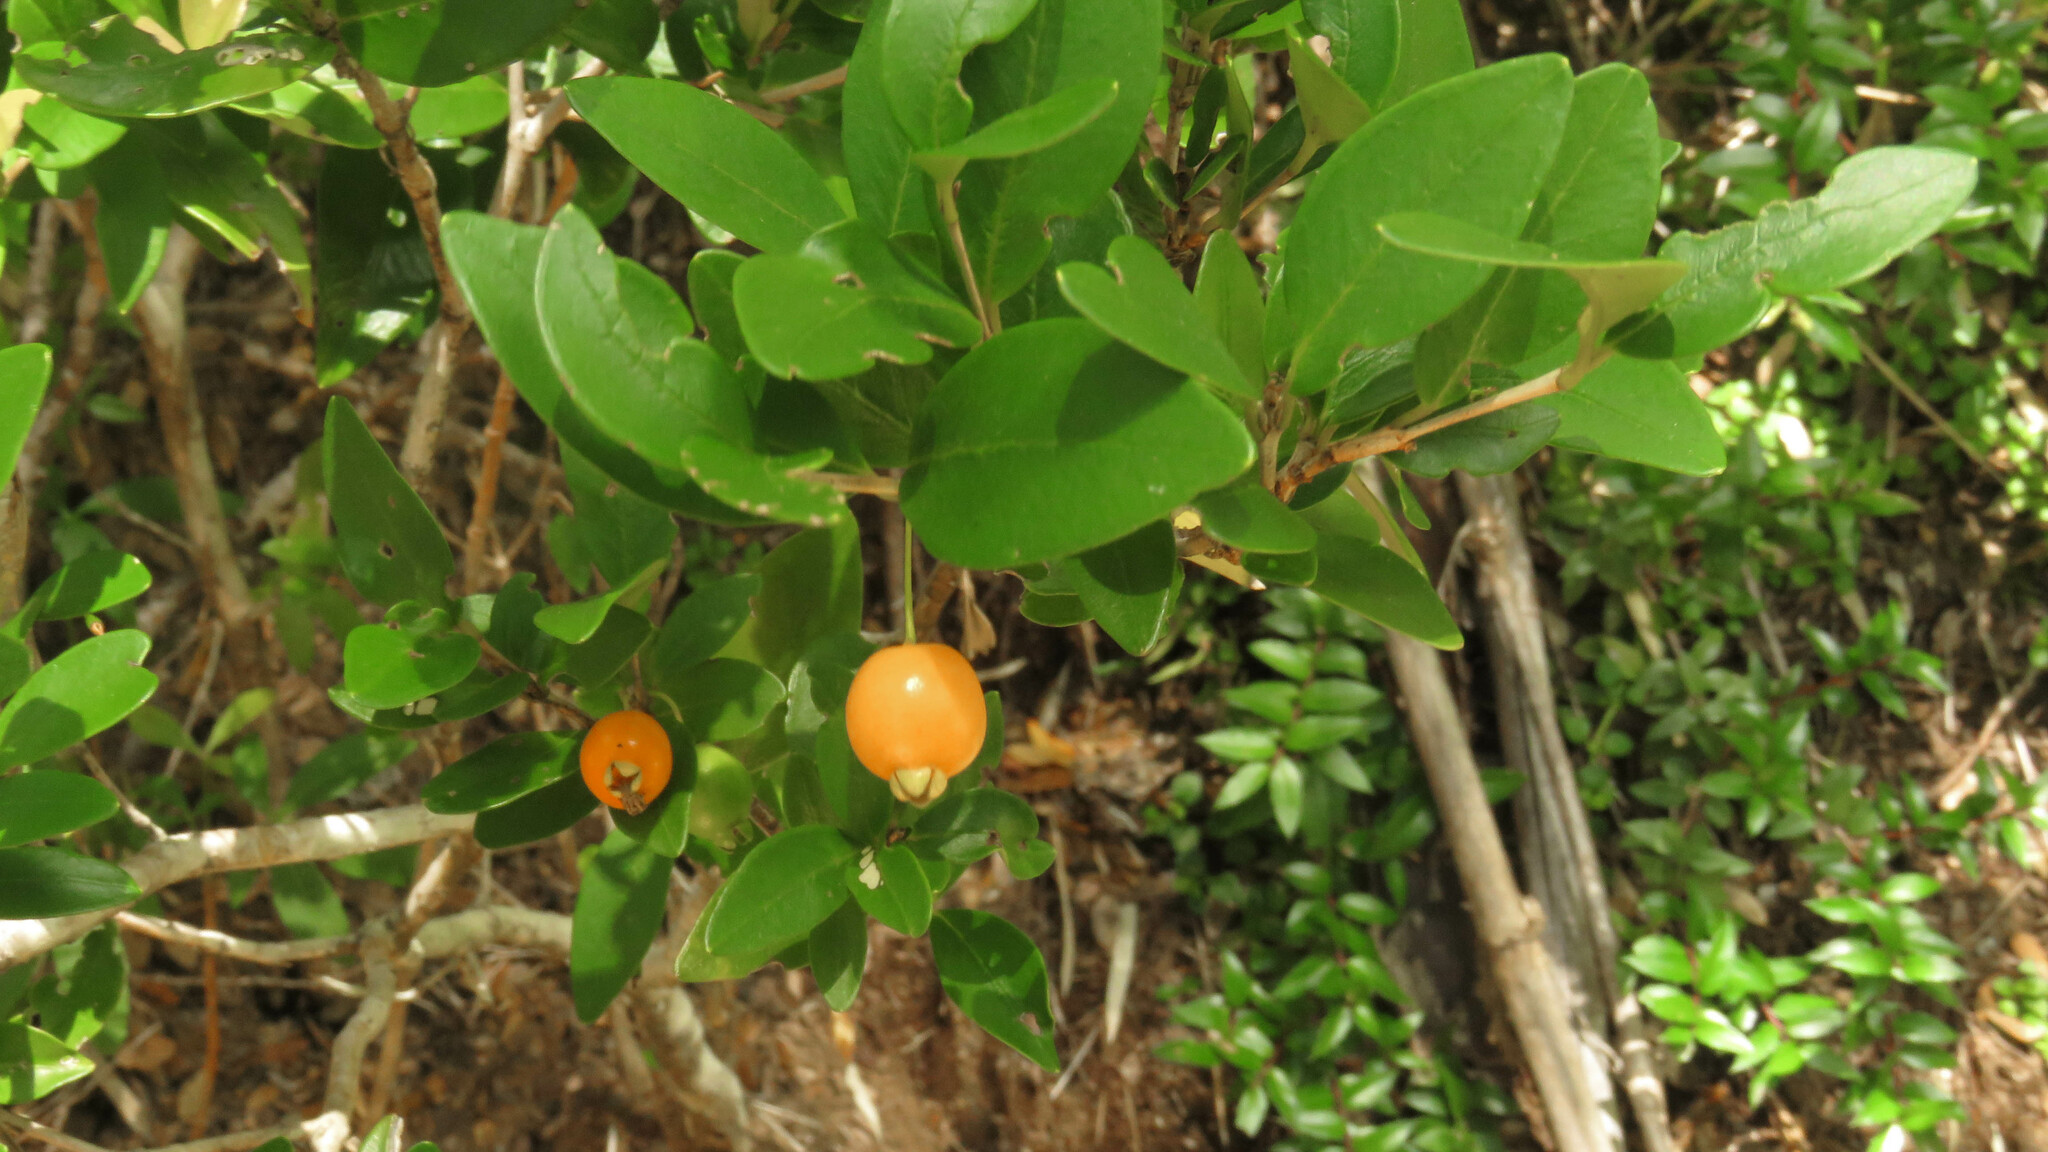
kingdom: Plantae
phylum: Tracheophyta
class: Magnoliopsida
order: Myrtales
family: Myrtaceae
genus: Myrceugenia
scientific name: Myrceugenia chrysocarpa
